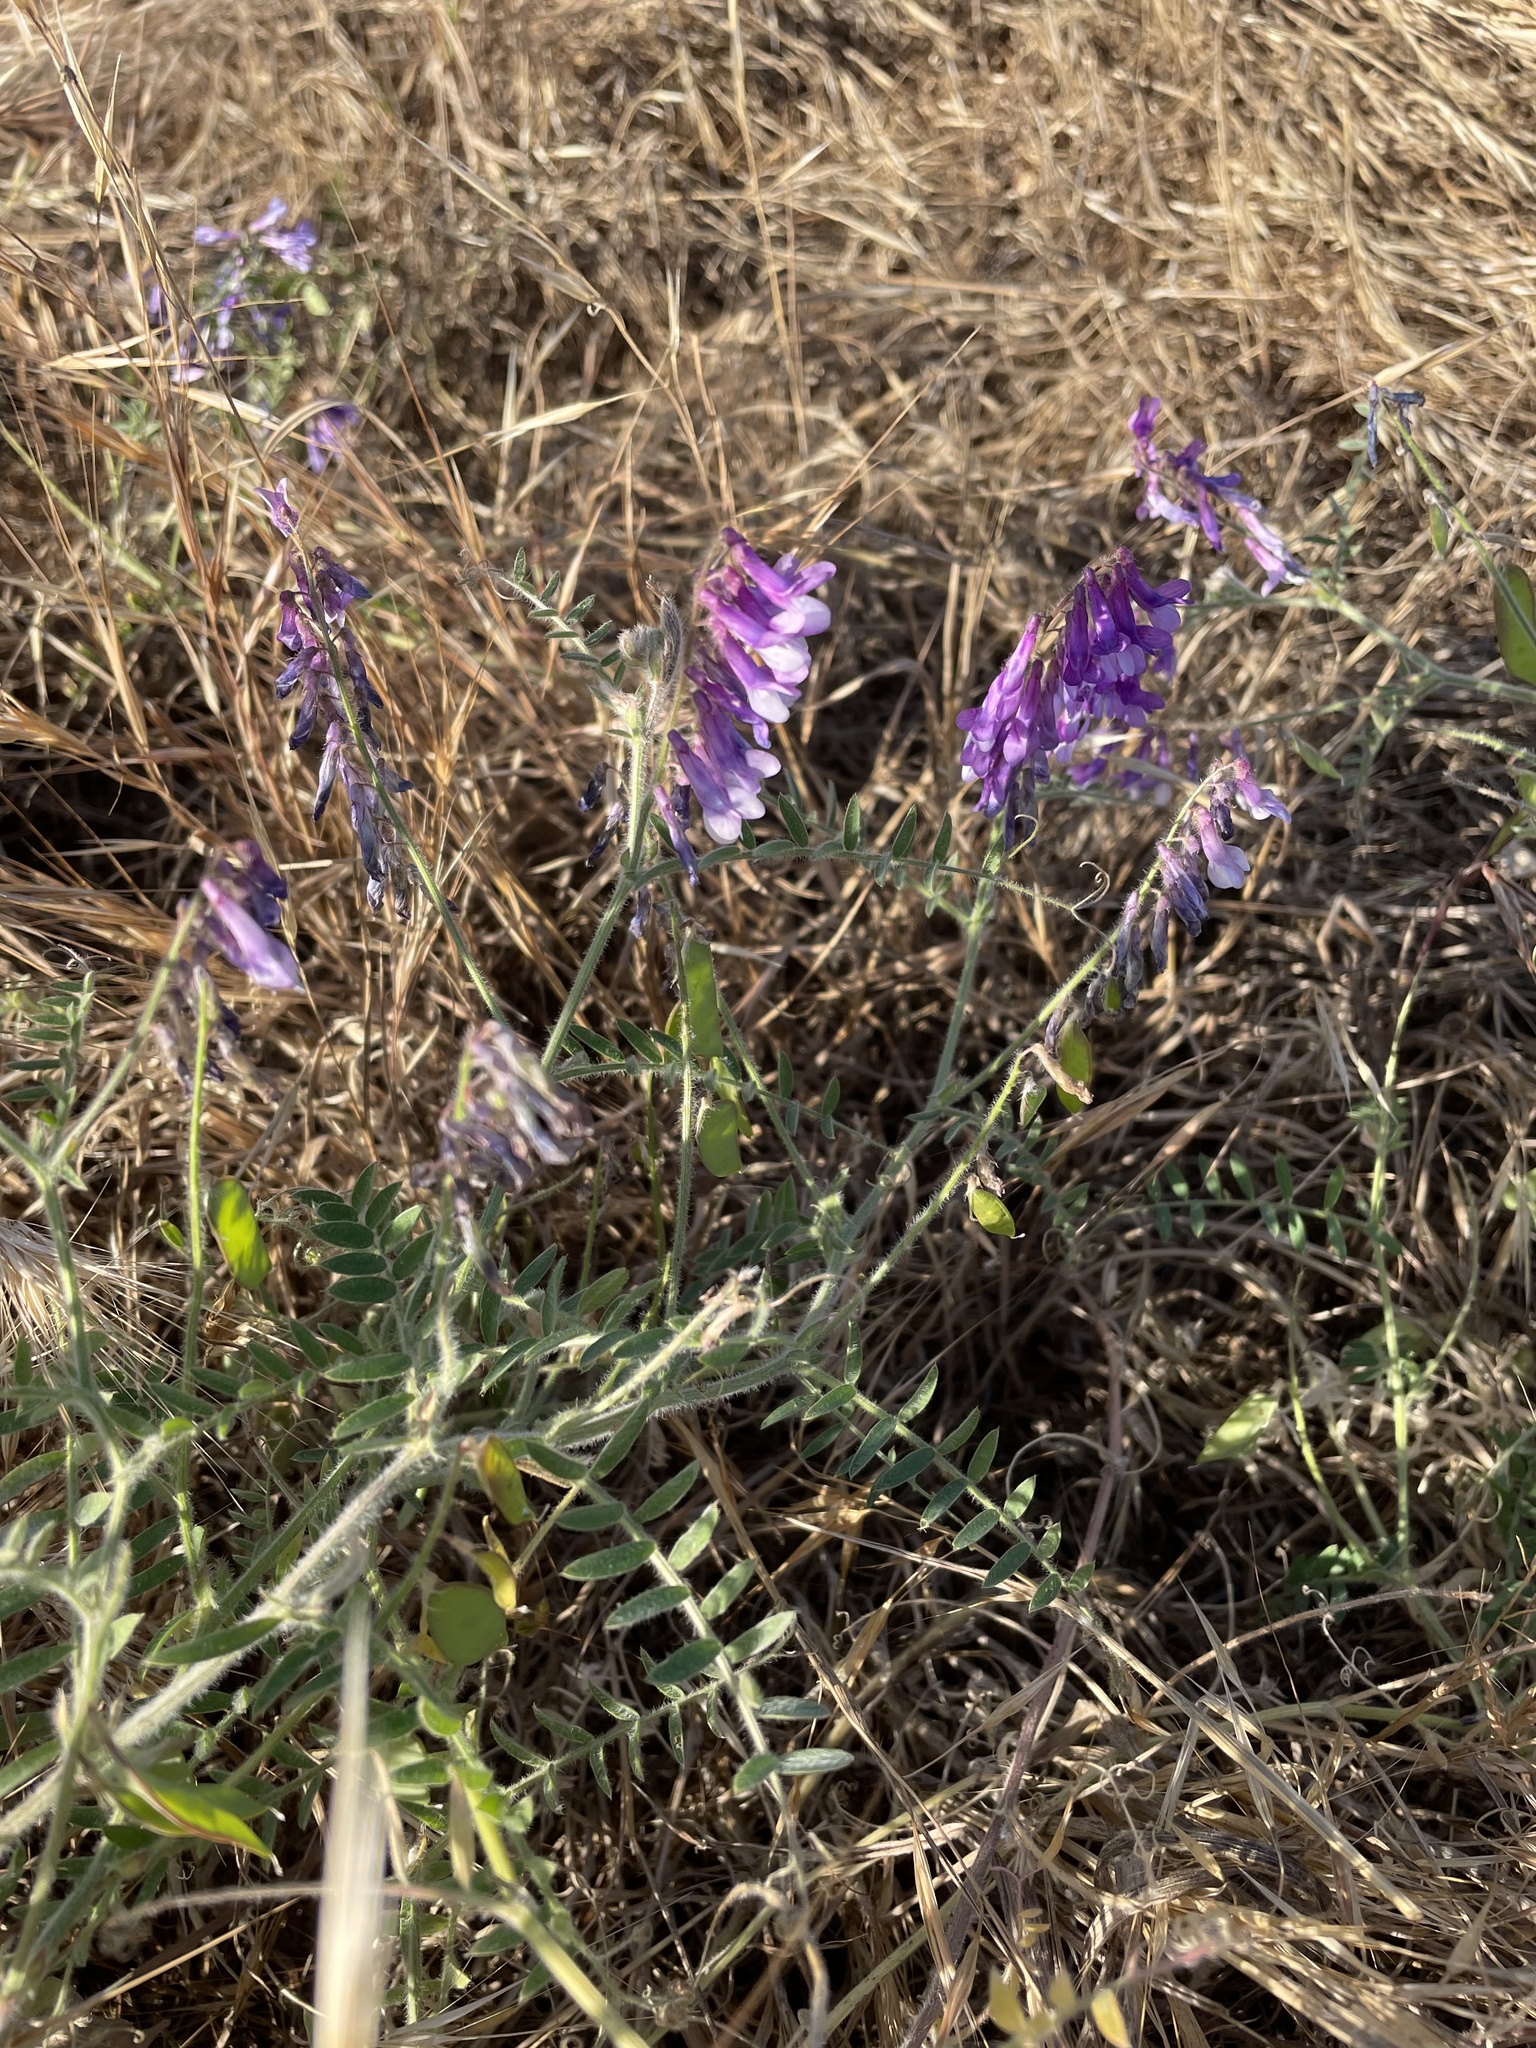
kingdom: Plantae
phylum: Tracheophyta
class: Magnoliopsida
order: Fabales
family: Fabaceae
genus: Vicia
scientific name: Vicia villosa
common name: Fodder vetch
